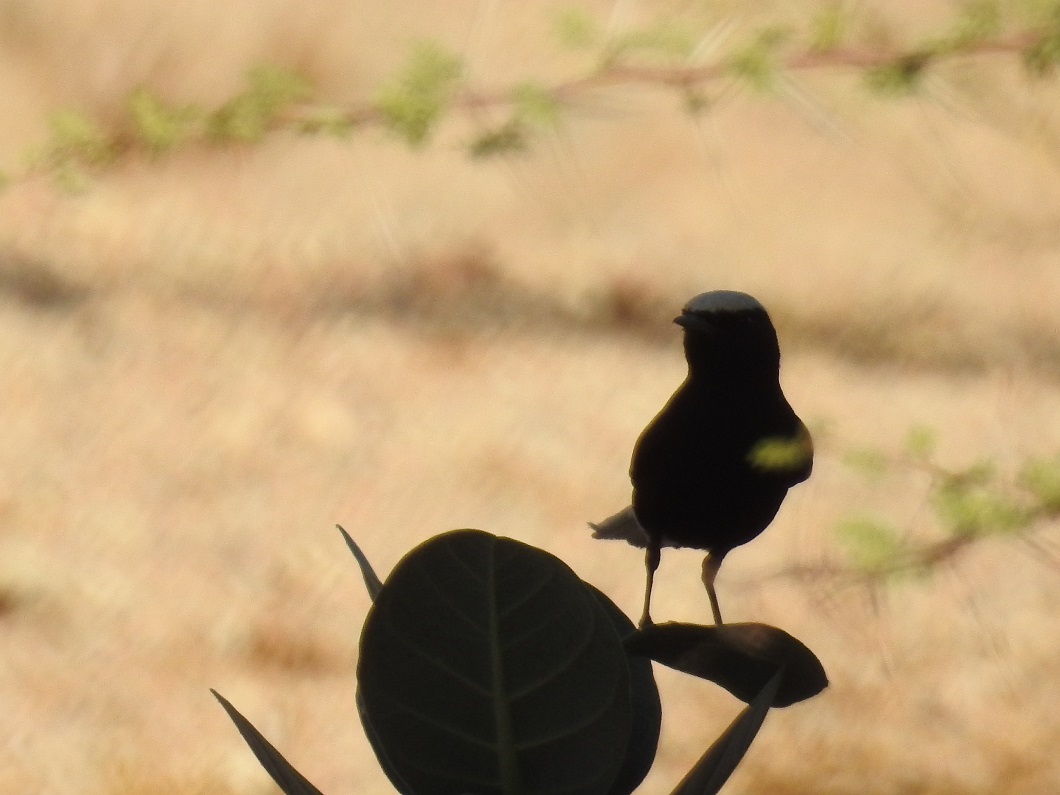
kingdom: Animalia
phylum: Chordata
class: Aves
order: Passeriformes
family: Muscicapidae
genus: Oenanthe
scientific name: Oenanthe leucopyga
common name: White-crowned wheatear
